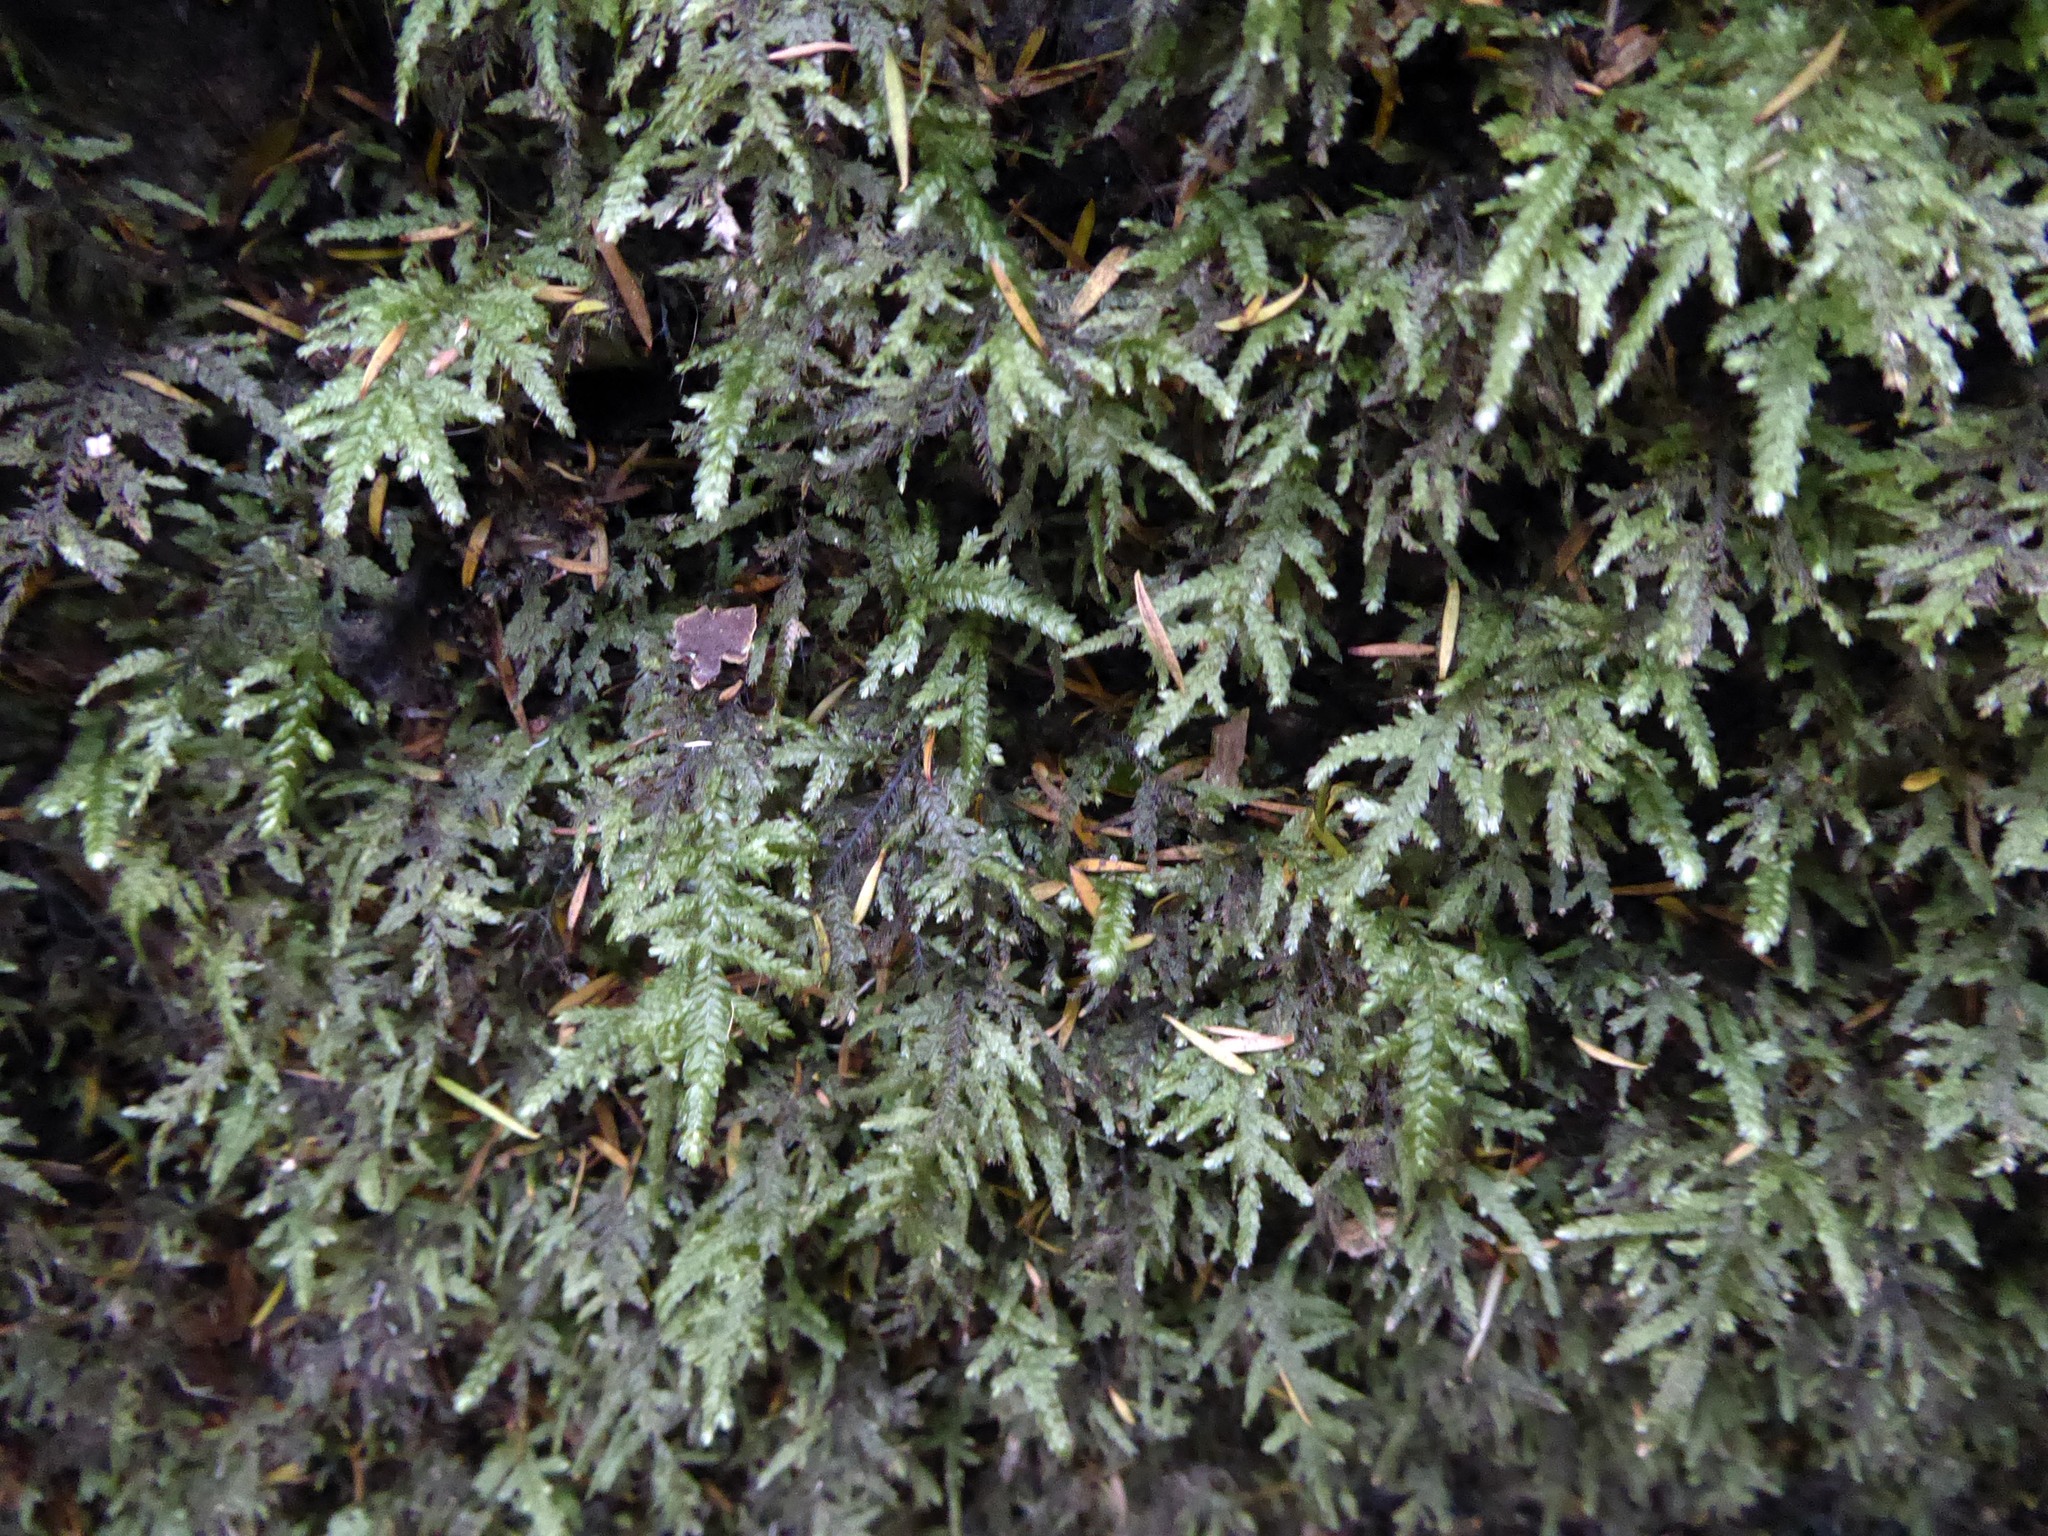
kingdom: Plantae
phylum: Bryophyta
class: Bryopsida
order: Hypnales
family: Neckeraceae
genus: Austrothamnium
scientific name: Austrothamnium pandum
